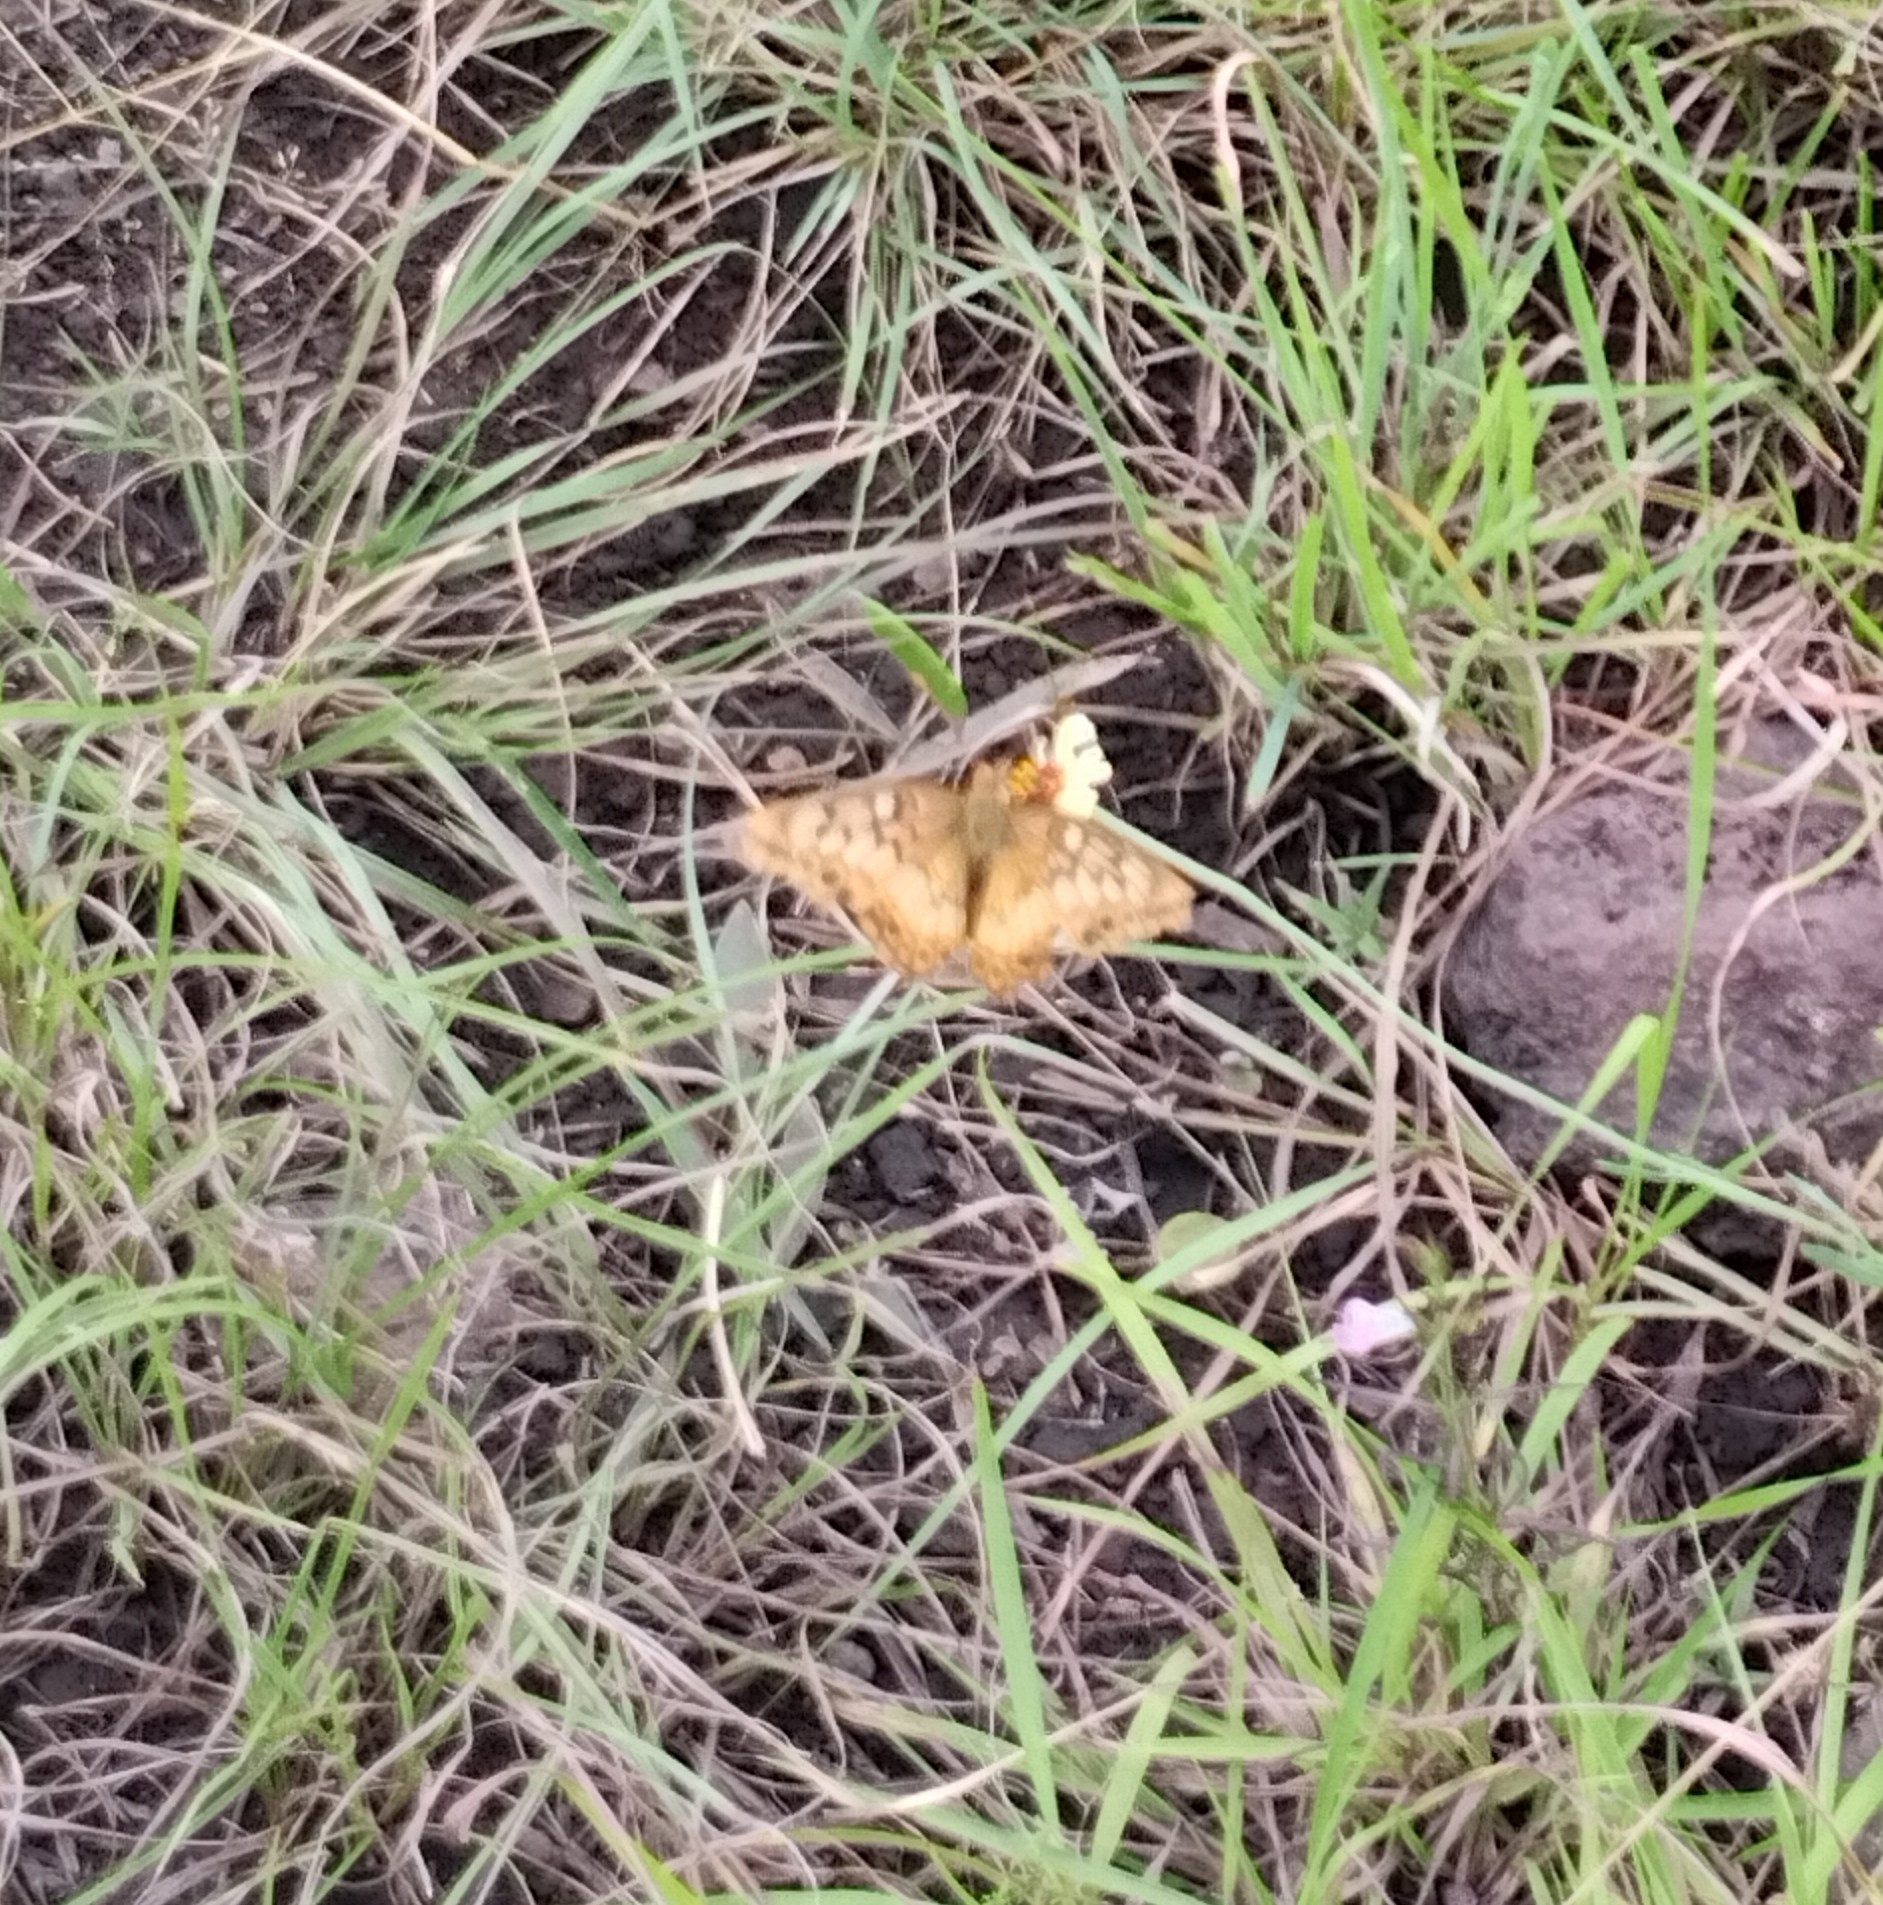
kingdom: Animalia
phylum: Arthropoda
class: Insecta
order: Lepidoptera
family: Nymphalidae
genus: Euptoieta
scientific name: Euptoieta hortensia
